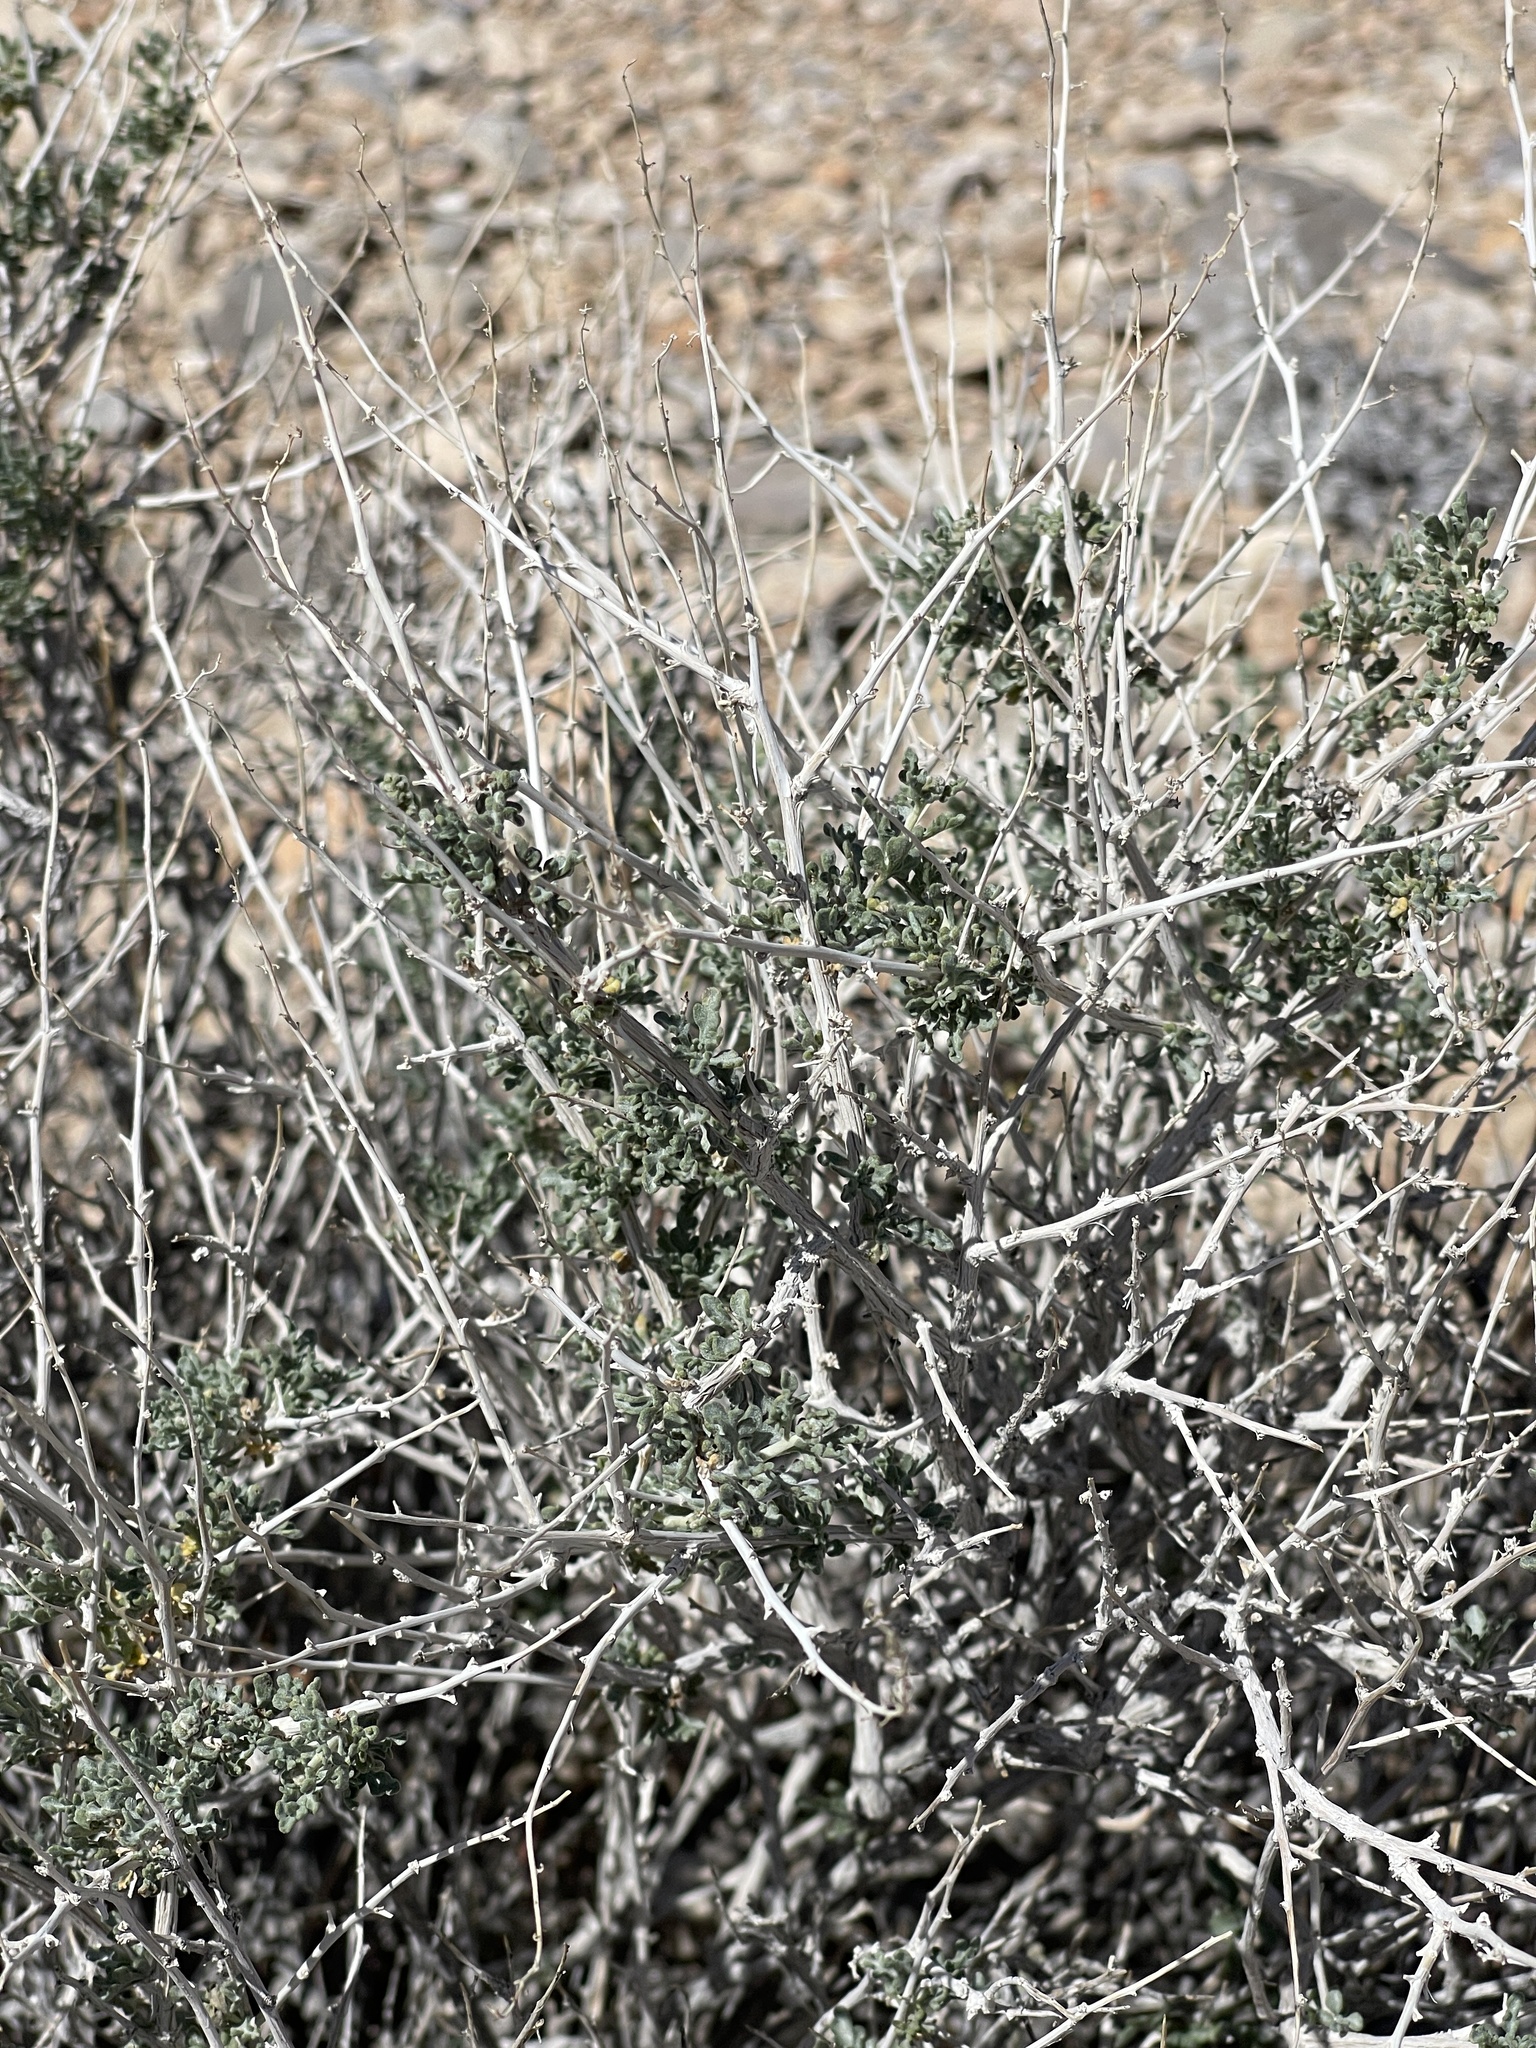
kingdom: Plantae
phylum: Tracheophyta
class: Magnoliopsida
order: Asterales
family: Asteraceae
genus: Ambrosia
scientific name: Ambrosia dumosa
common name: Bur-sage
